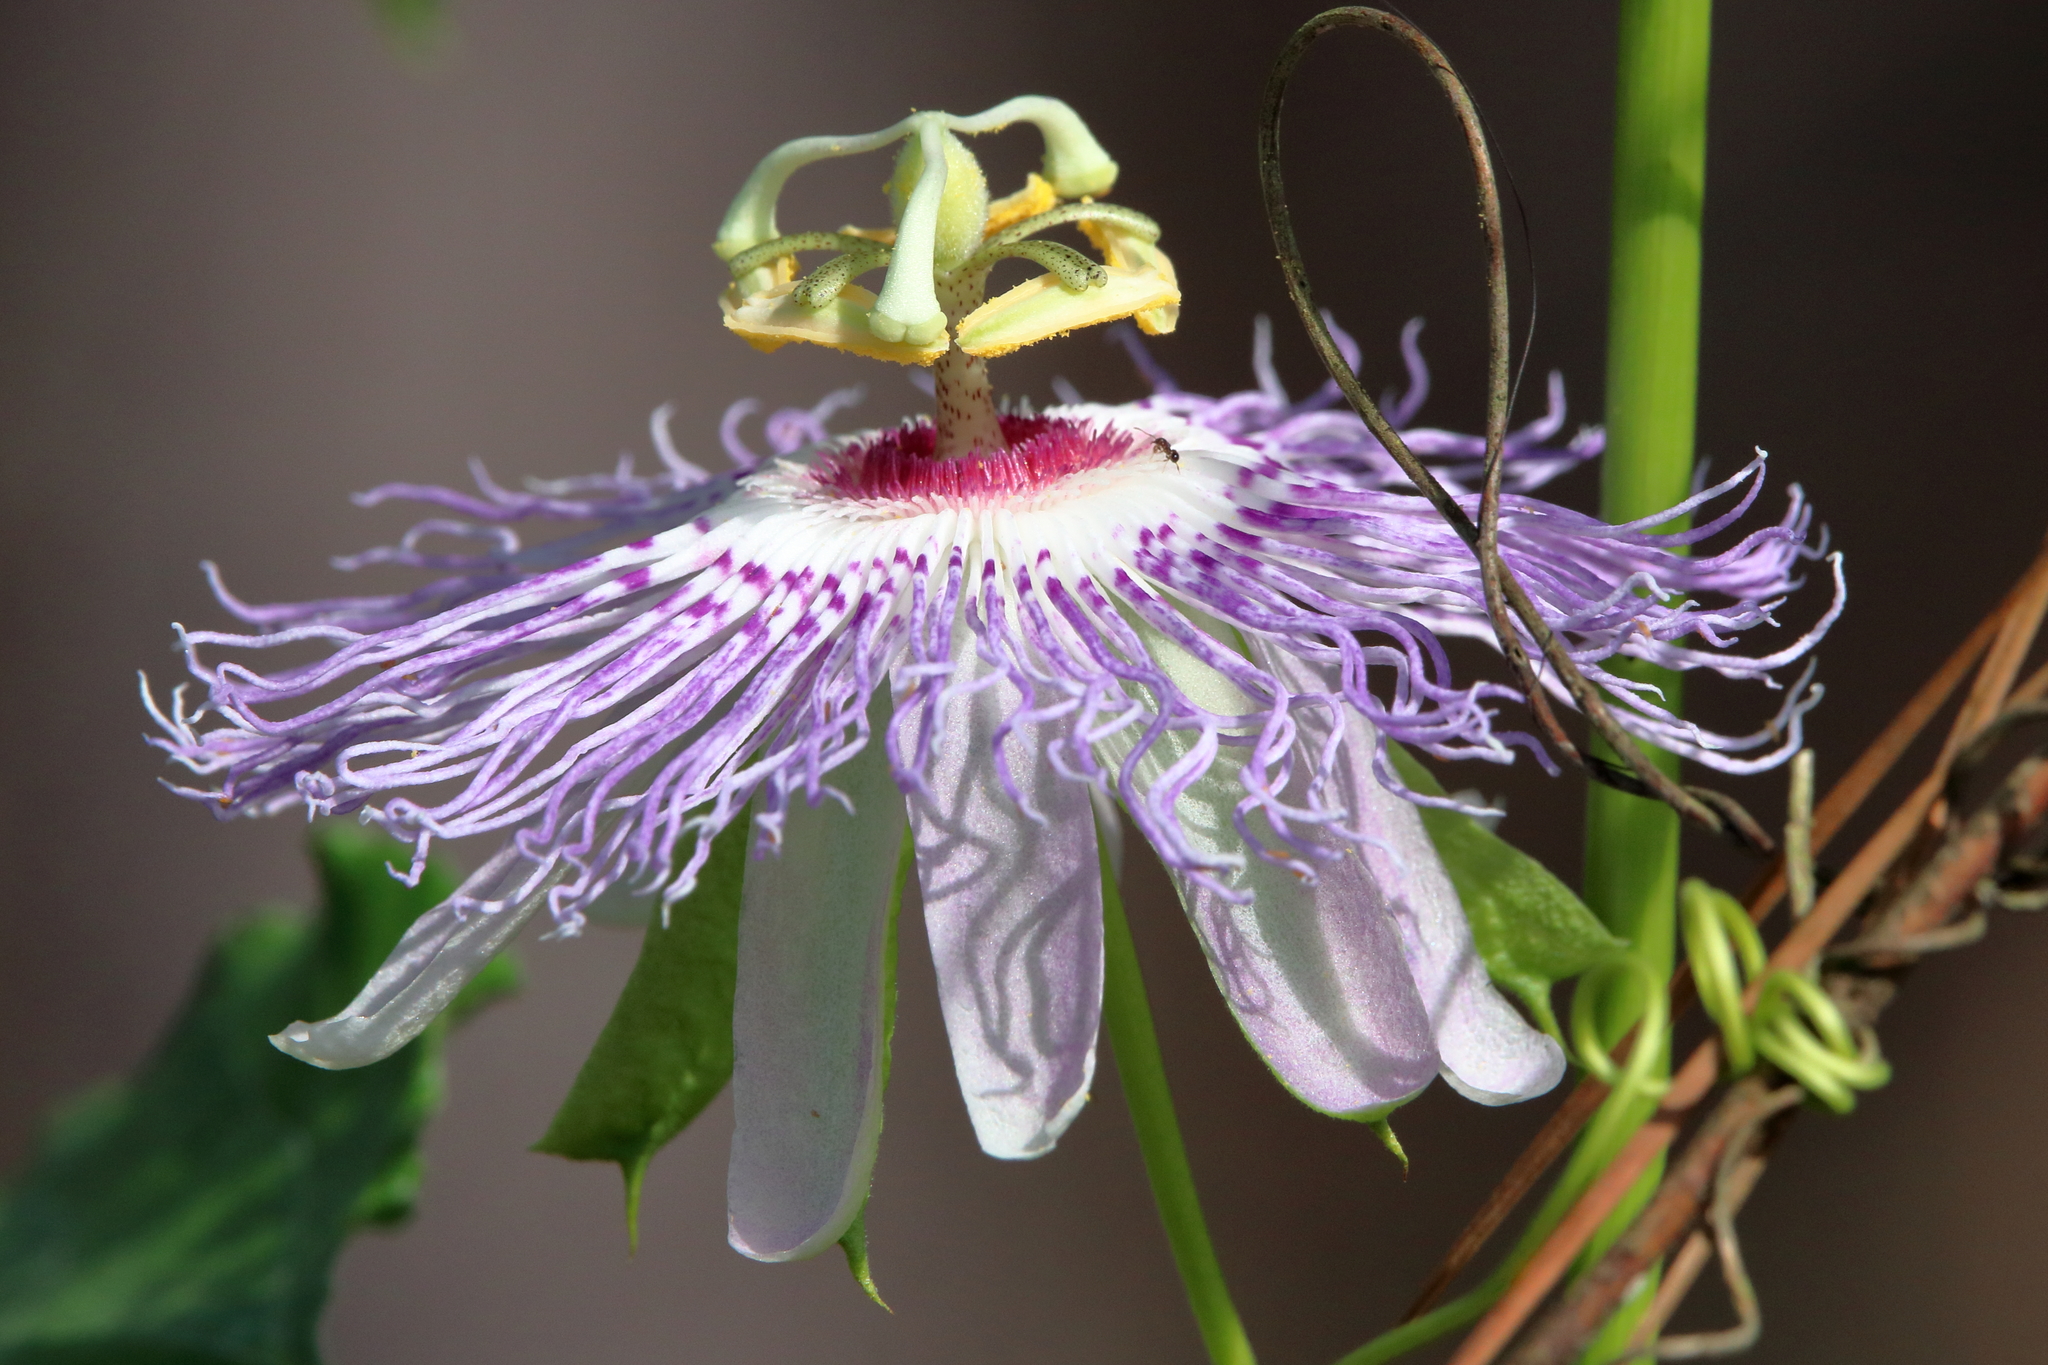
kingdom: Plantae
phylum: Tracheophyta
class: Magnoliopsida
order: Malpighiales
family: Passifloraceae
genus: Passiflora
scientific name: Passiflora incarnata
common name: Apricot-vine
